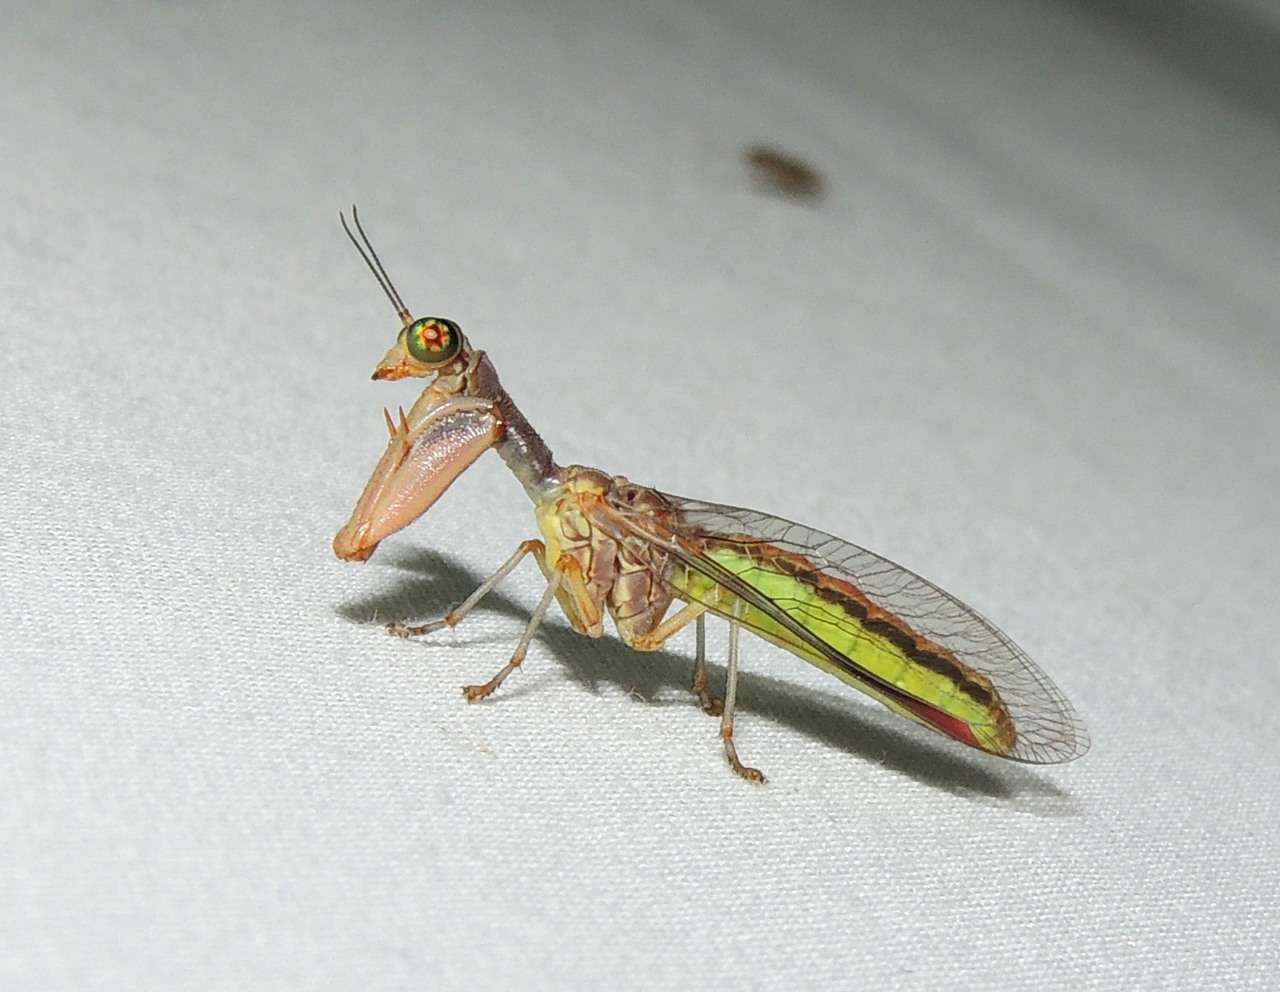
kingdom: Animalia
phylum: Arthropoda
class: Insecta
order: Neuroptera
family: Mantispidae
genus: Campion
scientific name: Campion cruciferus
